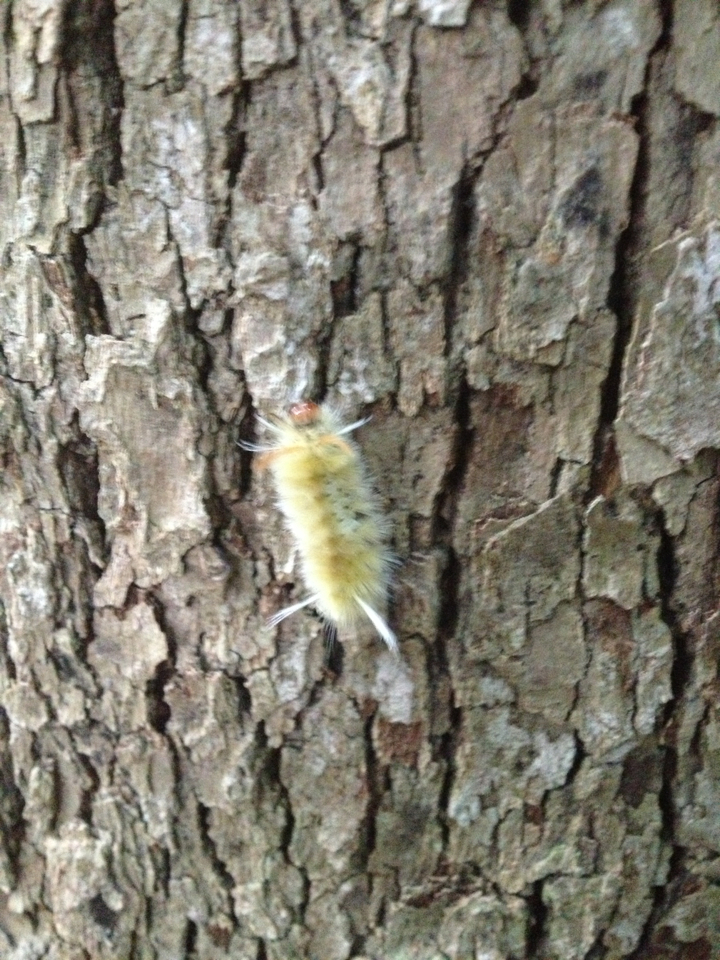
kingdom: Animalia
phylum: Arthropoda
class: Insecta
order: Lepidoptera
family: Erebidae
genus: Halysidota
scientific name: Halysidota harrisii
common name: Sycamore tussock moth
